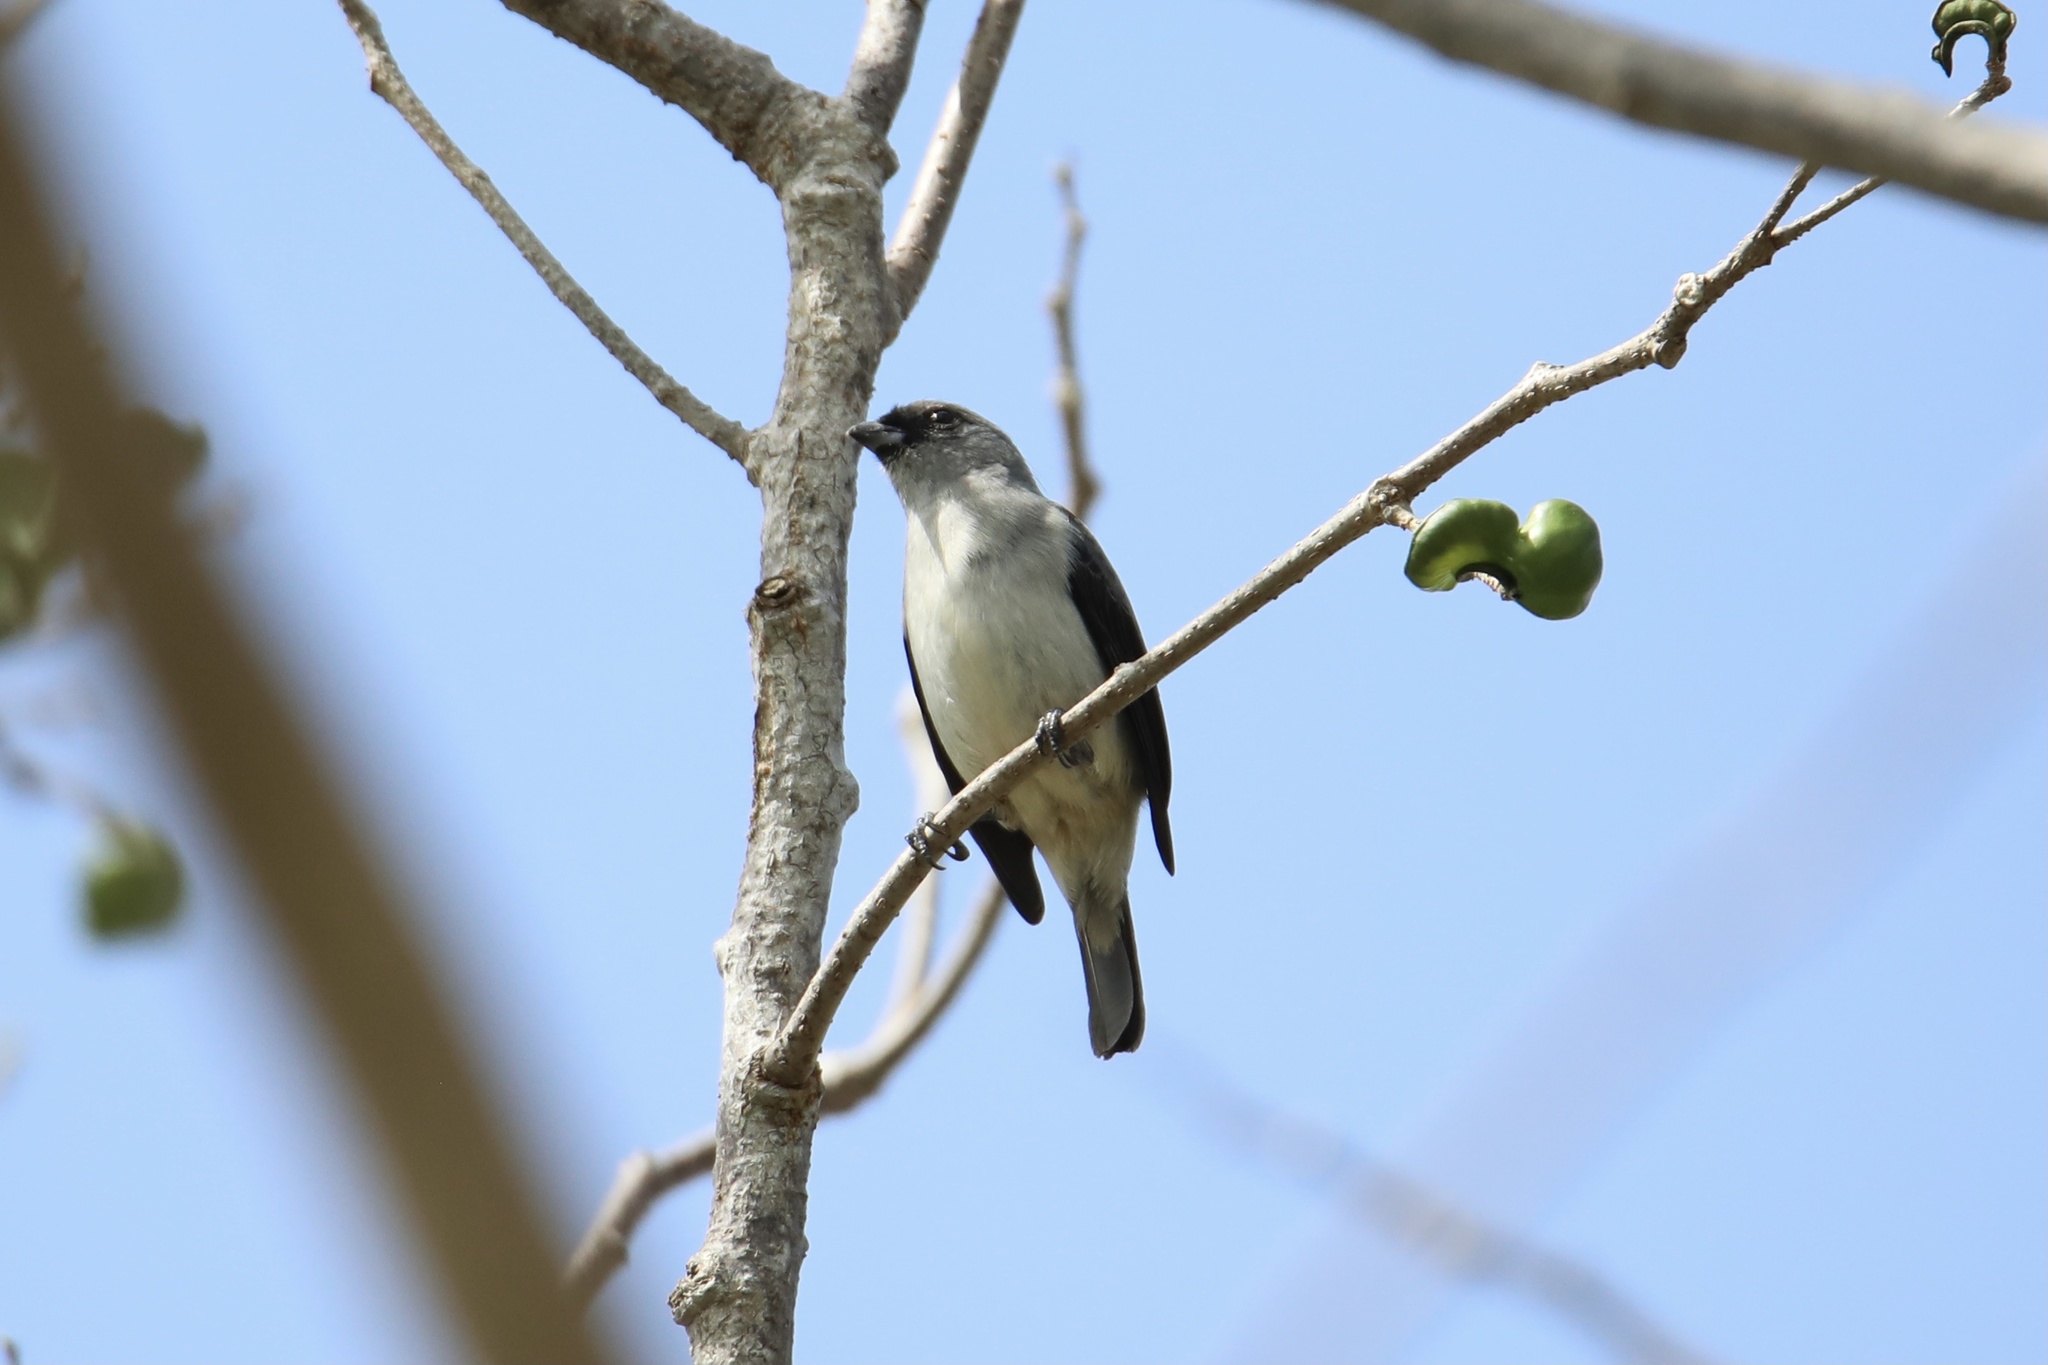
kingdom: Animalia
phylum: Chordata
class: Aves
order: Passeriformes
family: Thraupidae
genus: Tangara
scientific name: Tangara inornata
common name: Plain-colored tanager
